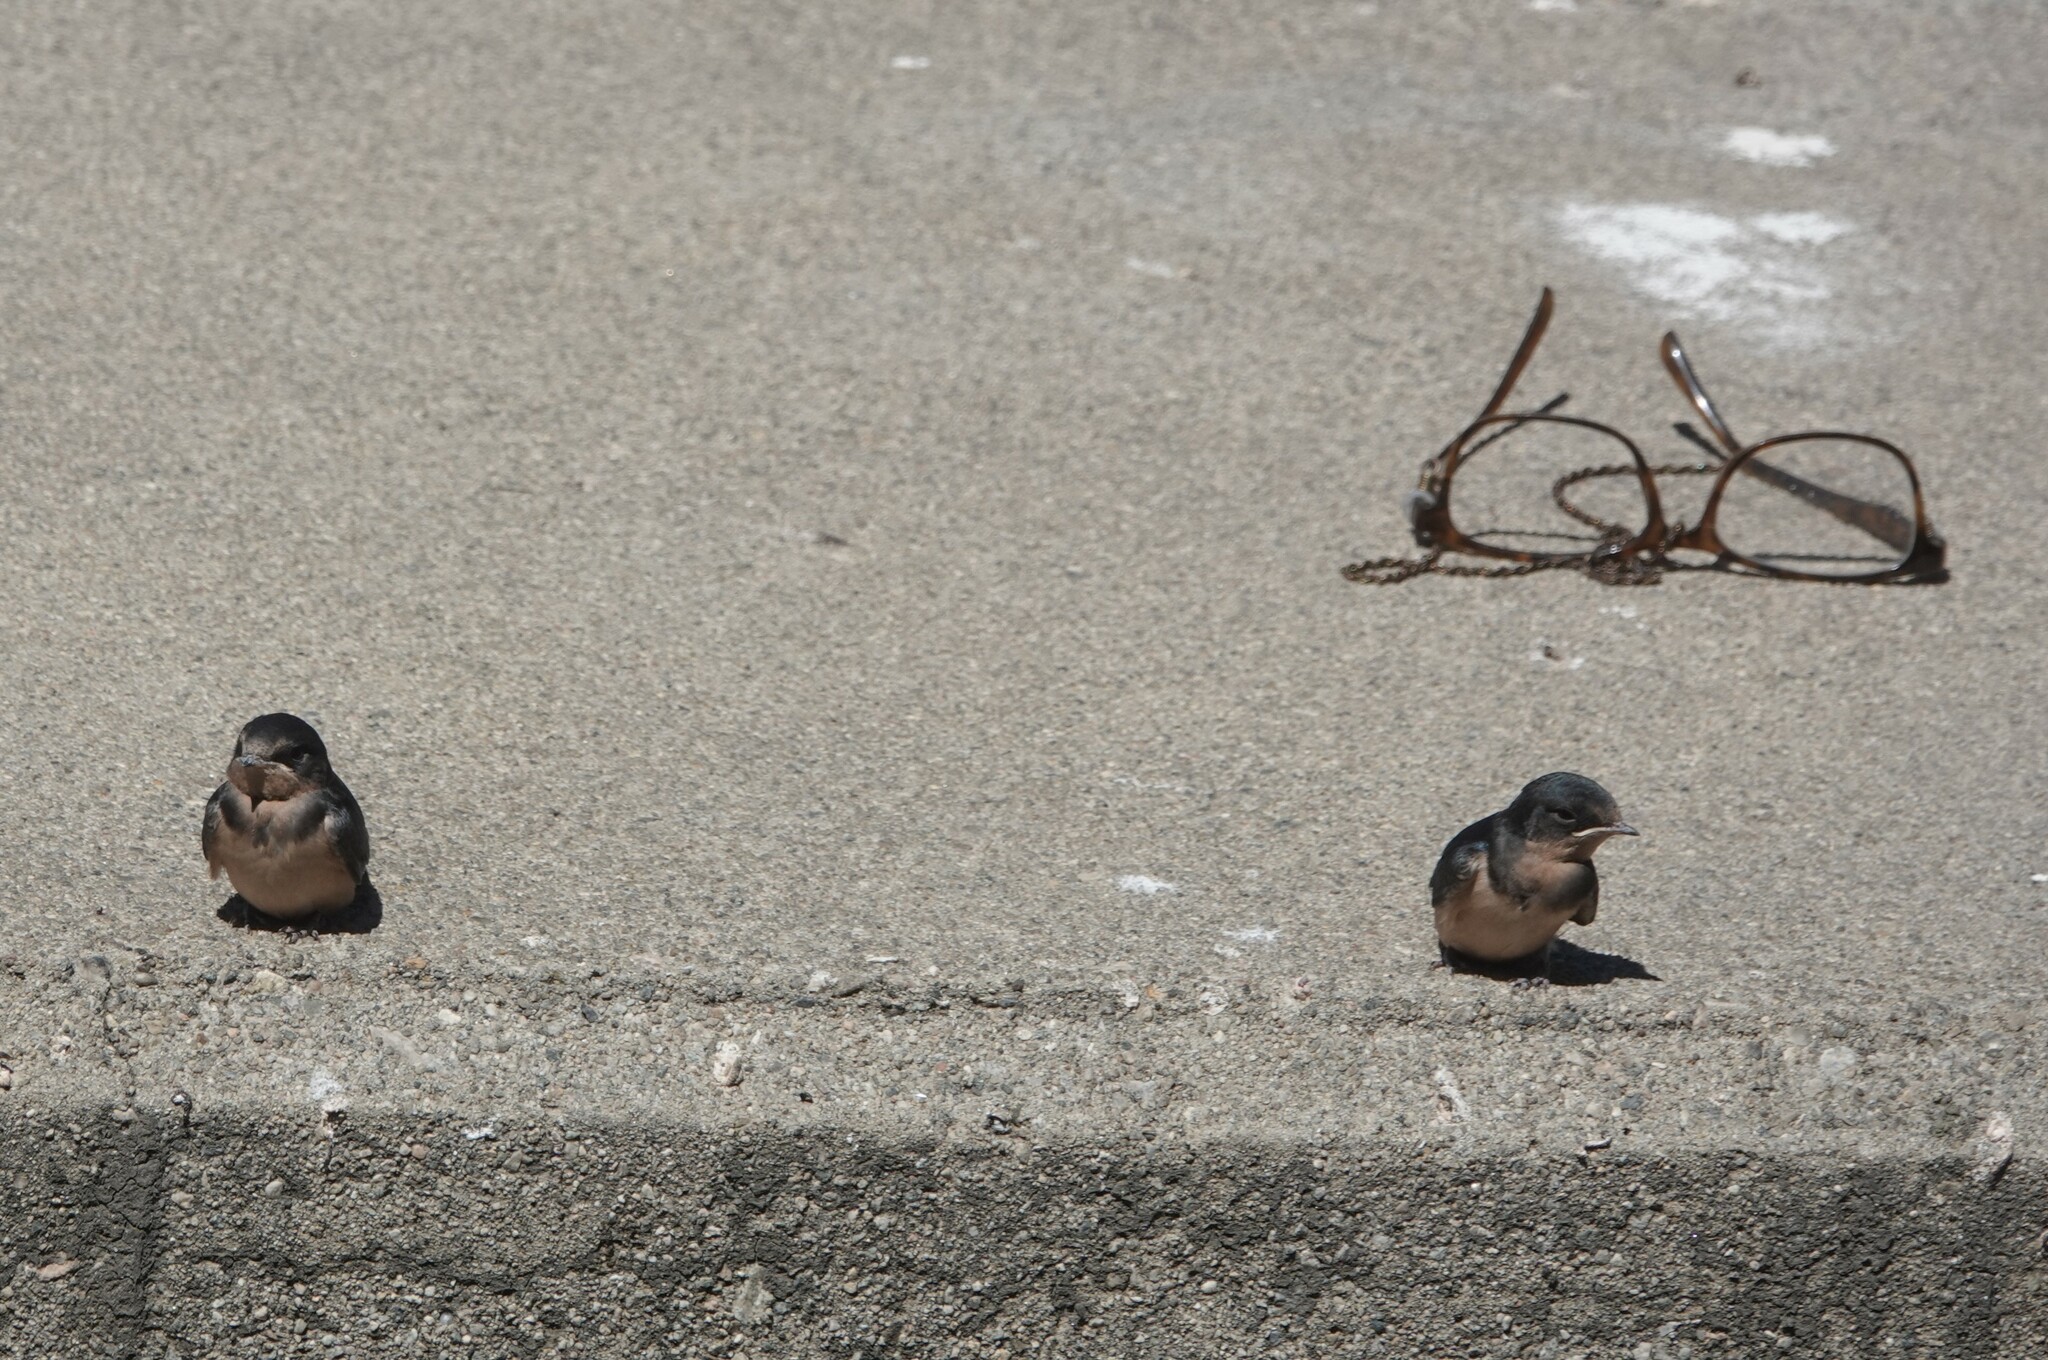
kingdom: Animalia
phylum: Chordata
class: Aves
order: Passeriformes
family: Hirundinidae
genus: Hirundo
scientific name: Hirundo rustica
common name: Barn swallow
